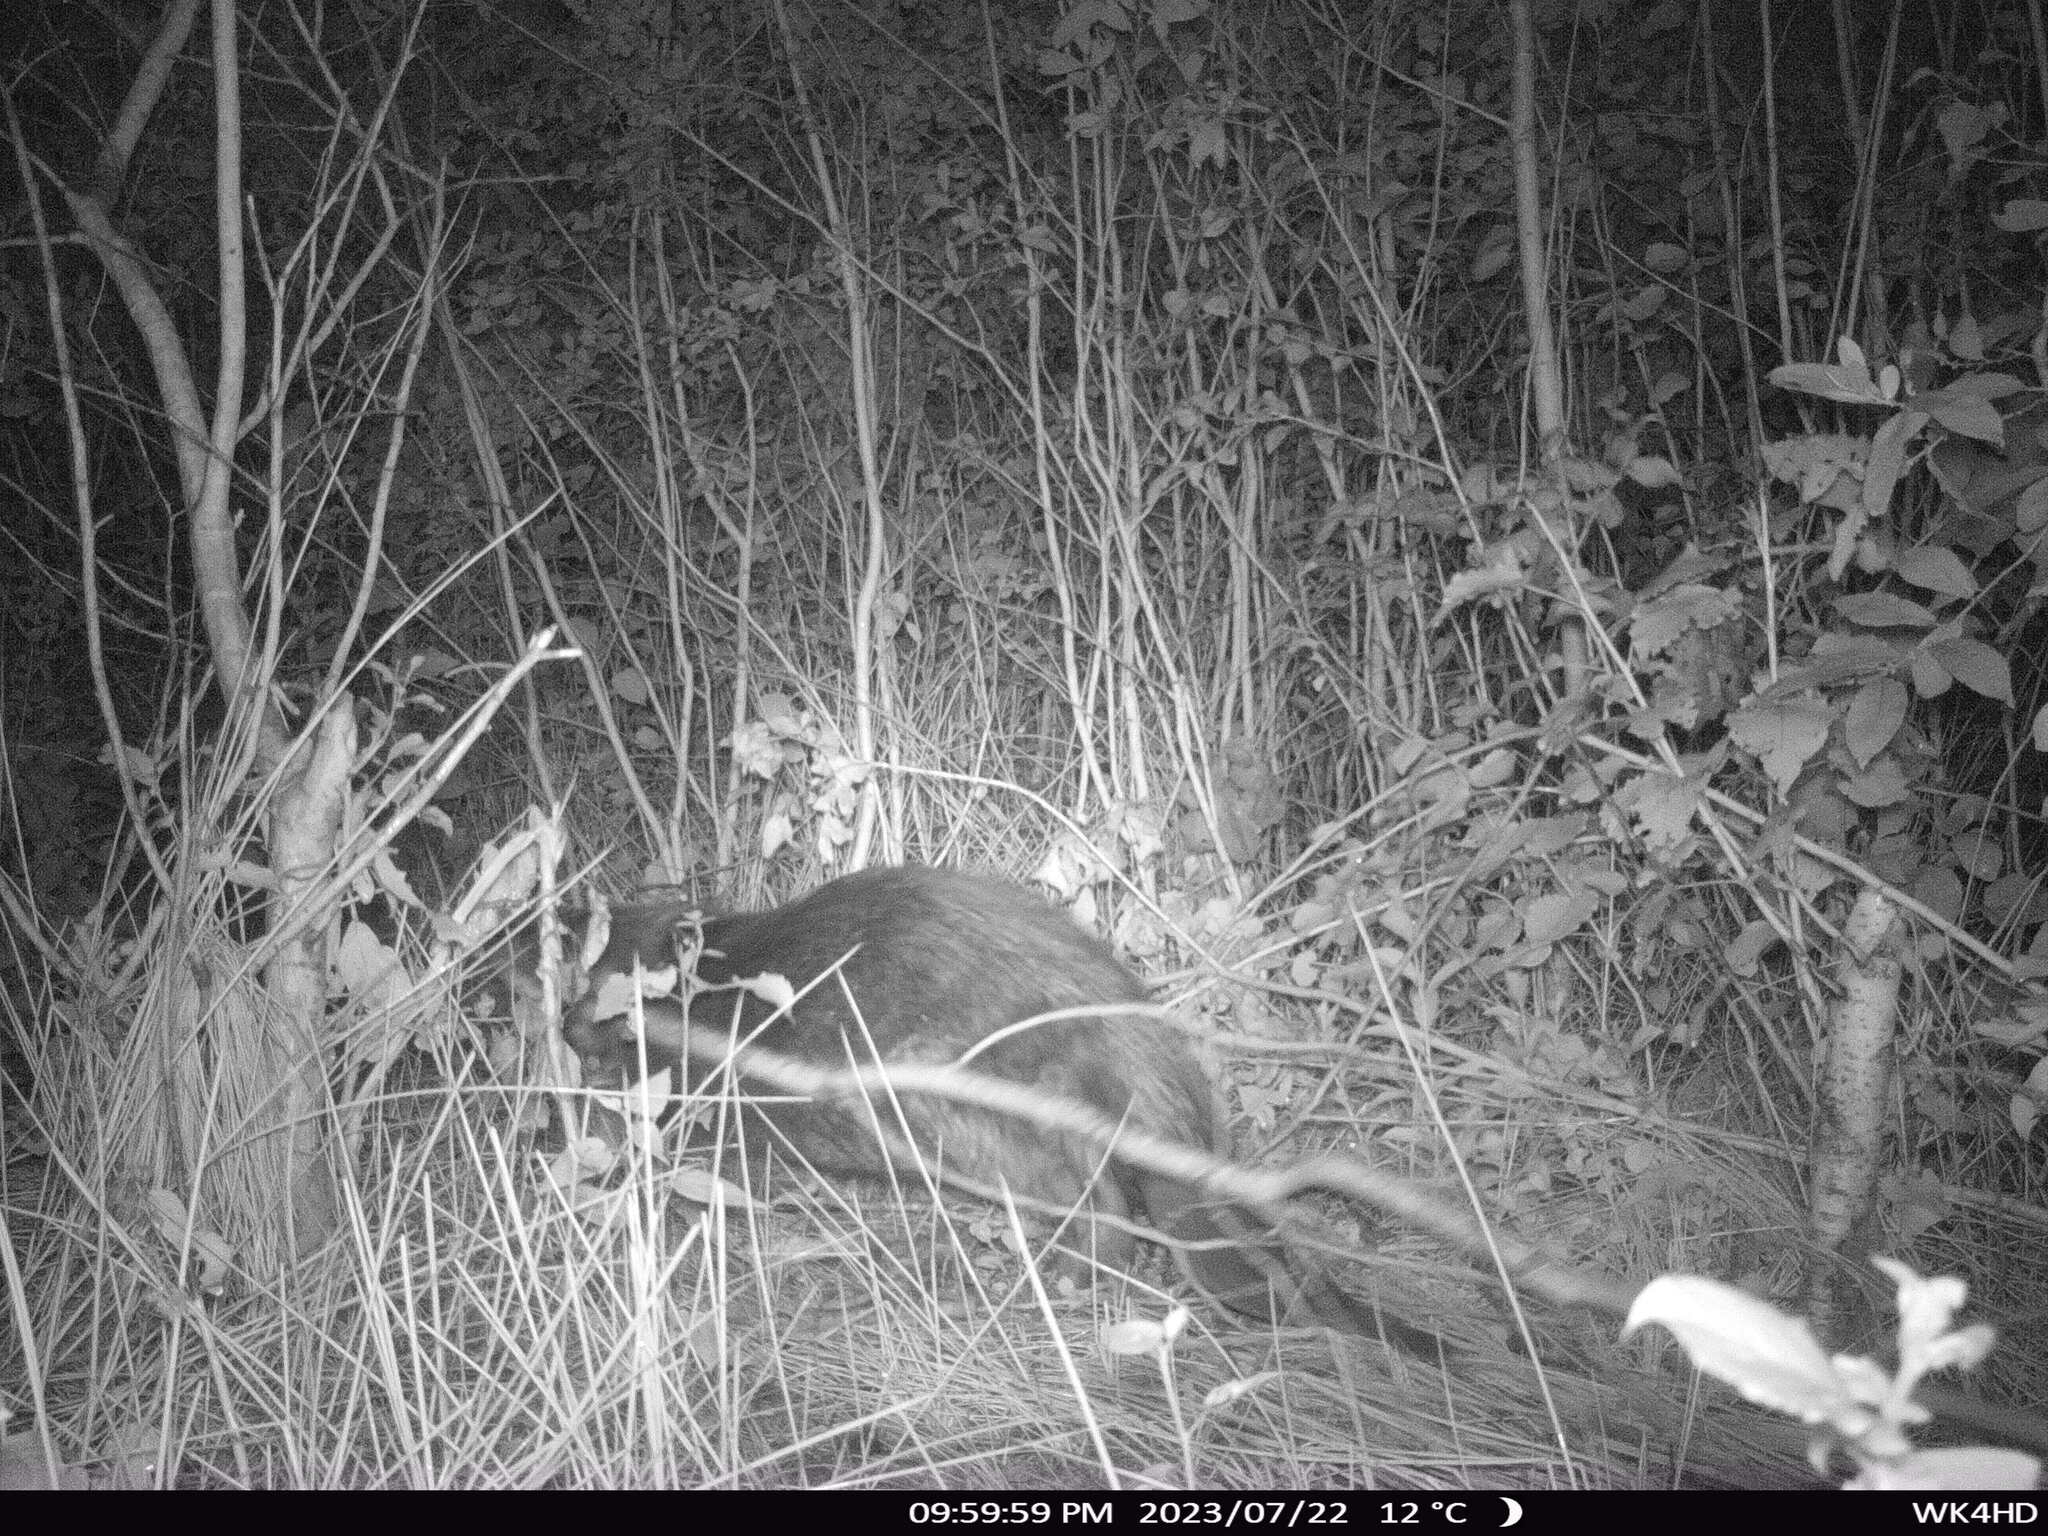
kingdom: Animalia
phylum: Chordata
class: Mammalia
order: Rodentia
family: Castoridae
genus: Castor
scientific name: Castor fiber
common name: Eurasian beaver
